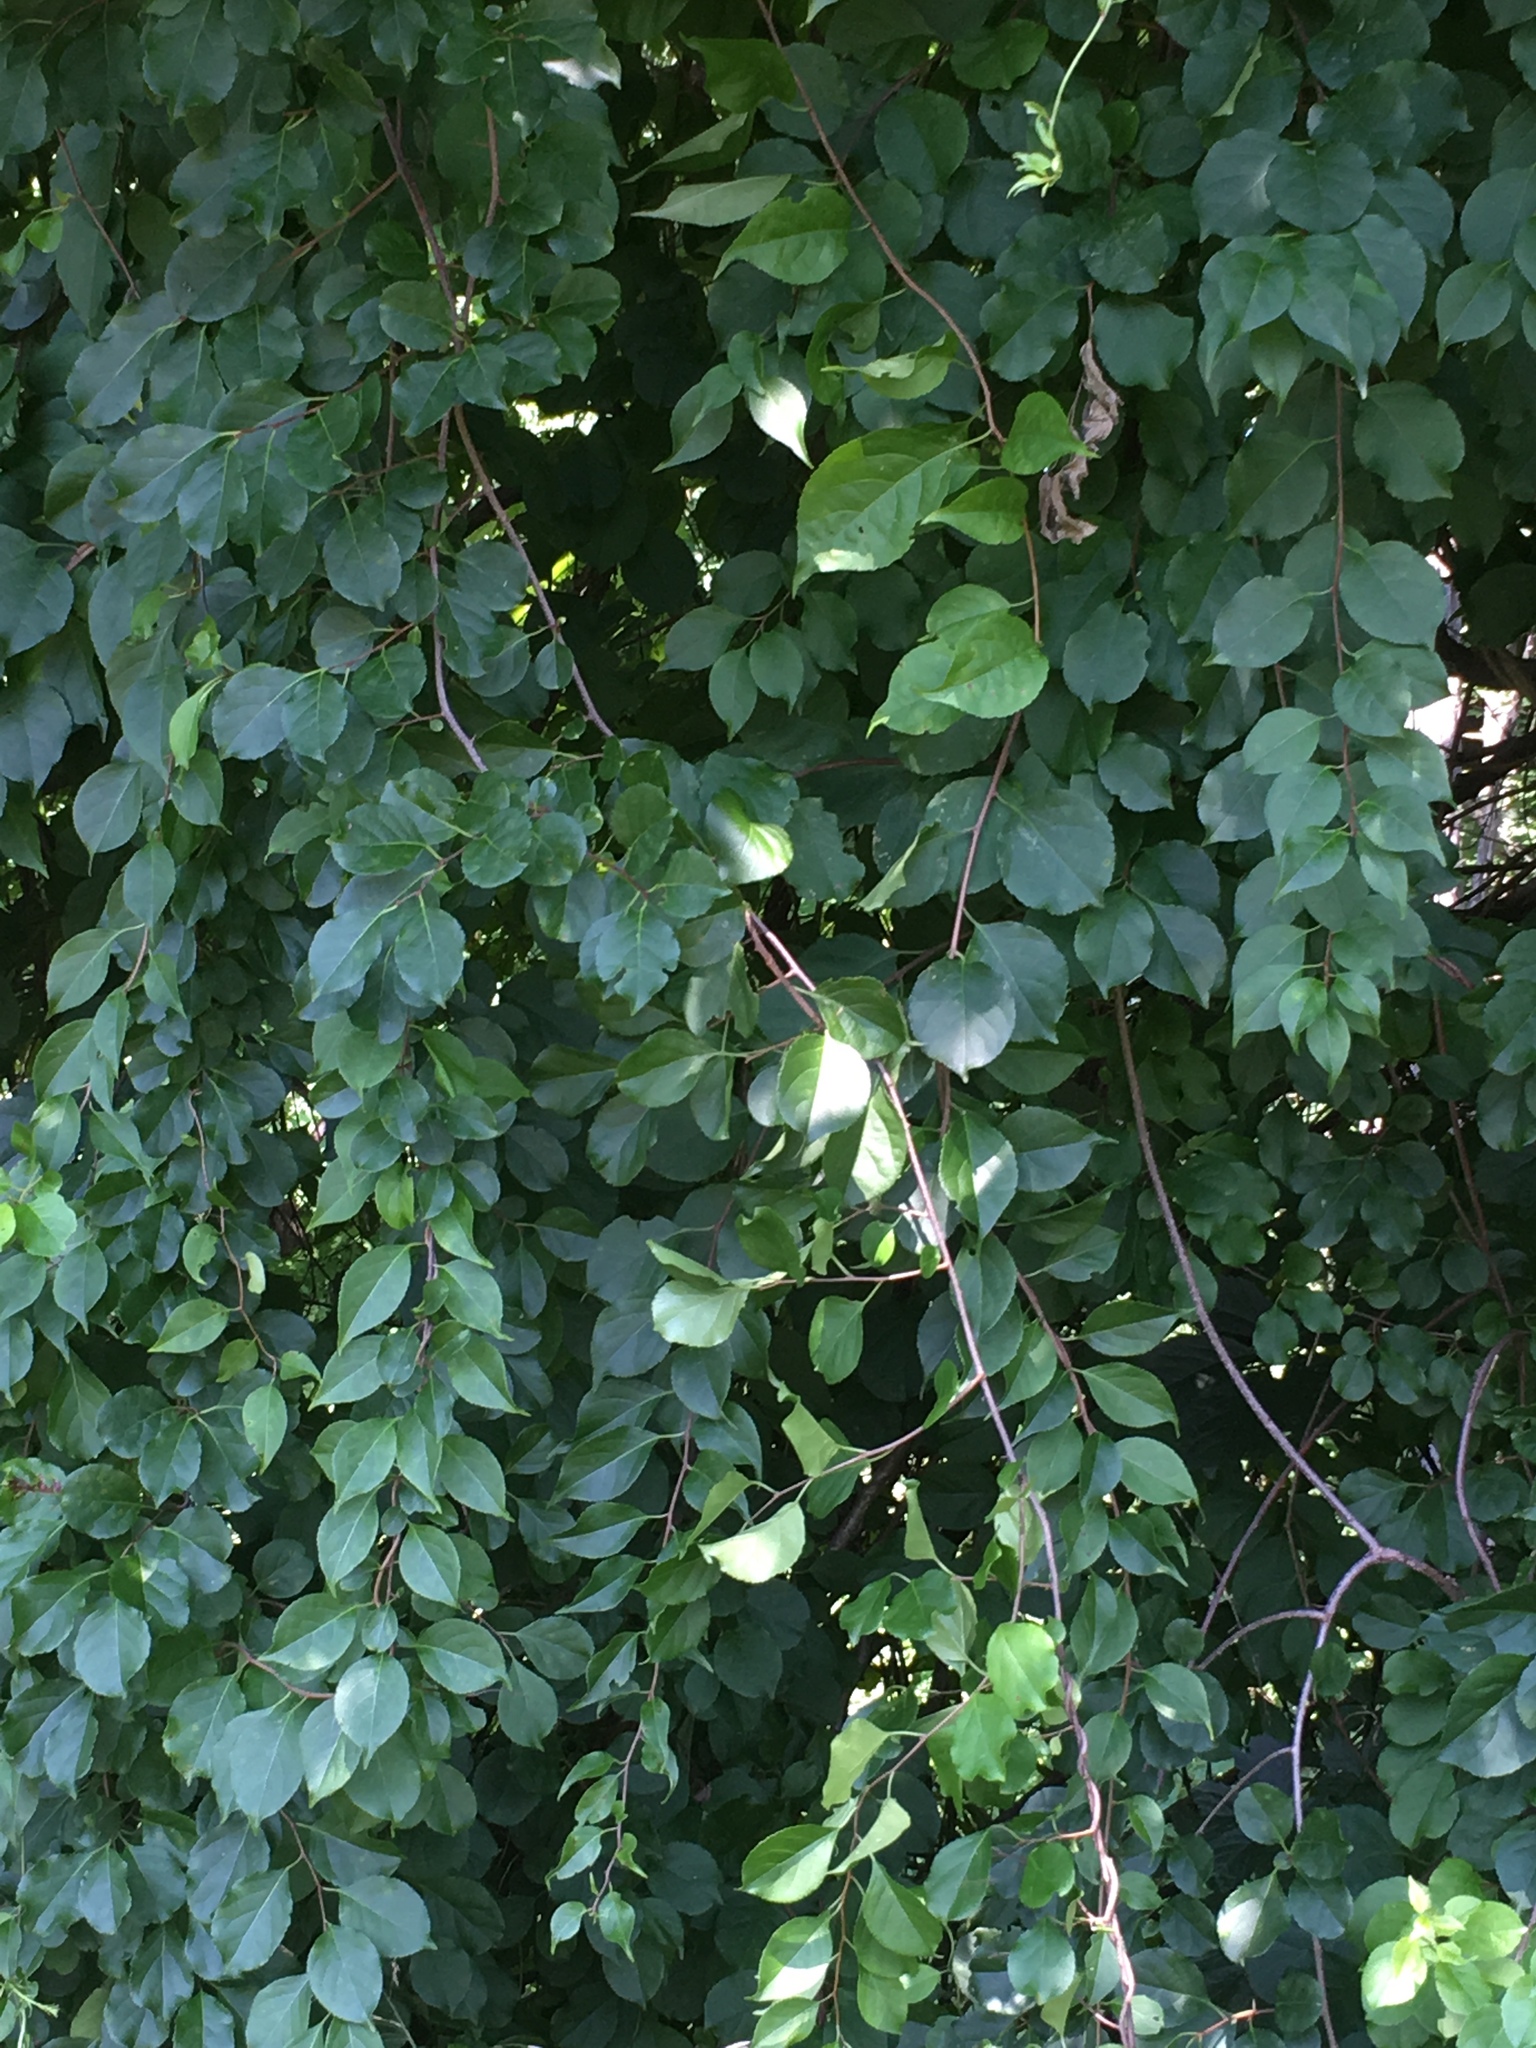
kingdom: Plantae
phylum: Tracheophyta
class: Magnoliopsida
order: Celastrales
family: Celastraceae
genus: Celastrus
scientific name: Celastrus orbiculatus
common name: Oriental bittersweet
